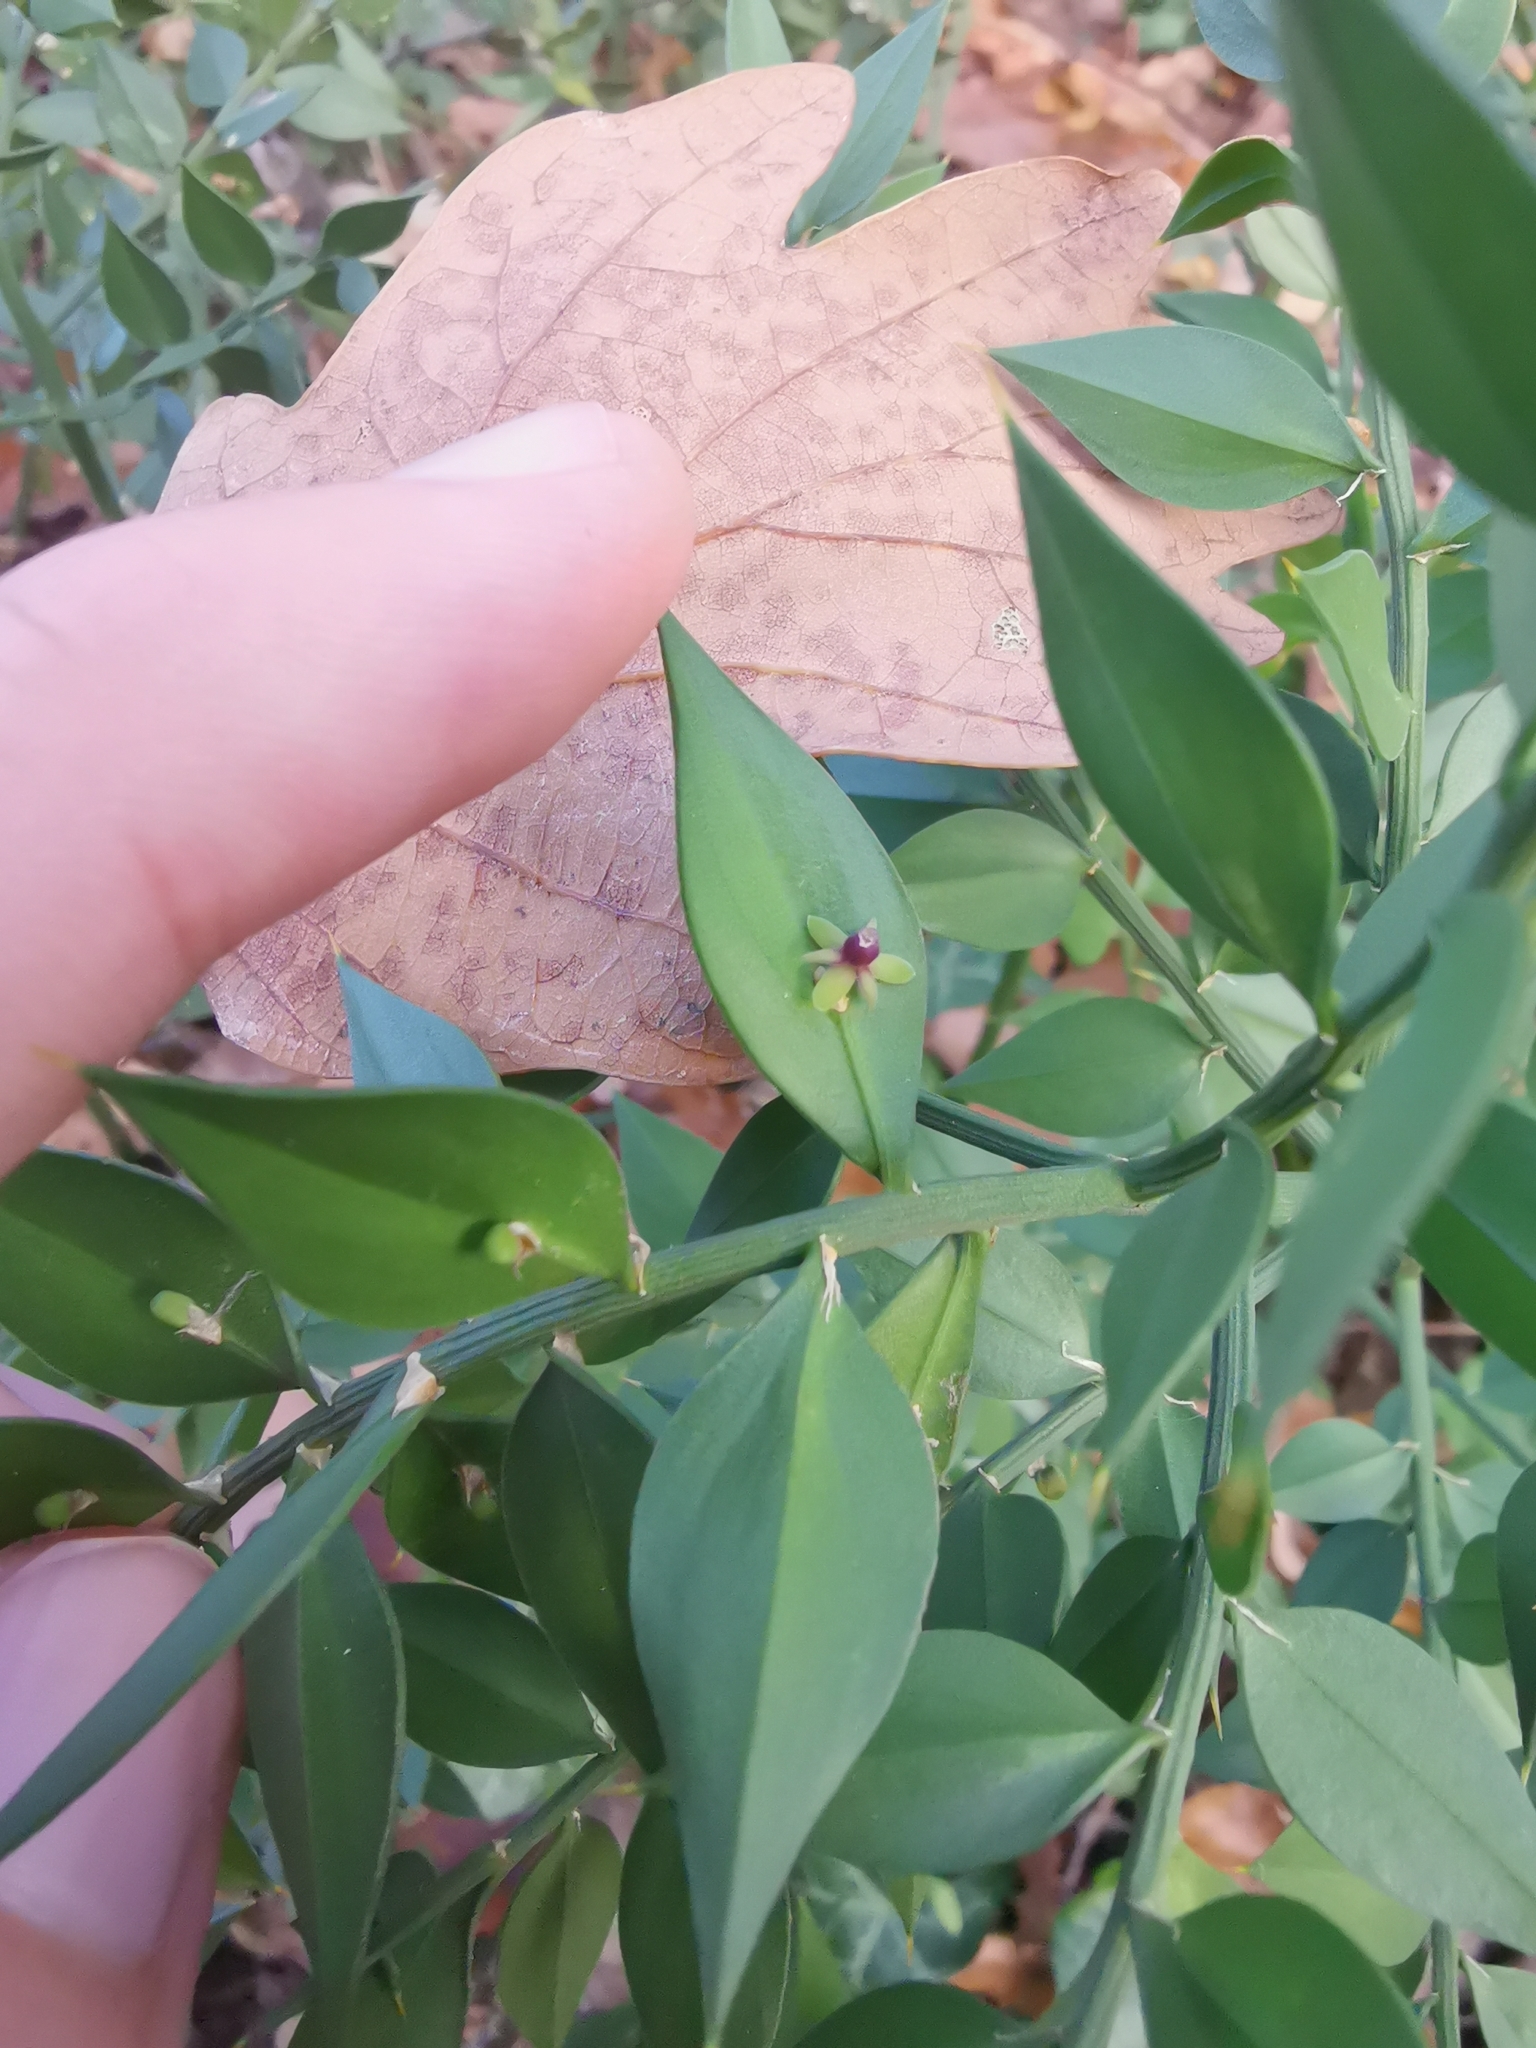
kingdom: Plantae
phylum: Tracheophyta
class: Liliopsida
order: Asparagales
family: Asparagaceae
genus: Ruscus
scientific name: Ruscus aculeatus
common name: Butcher's-broom
